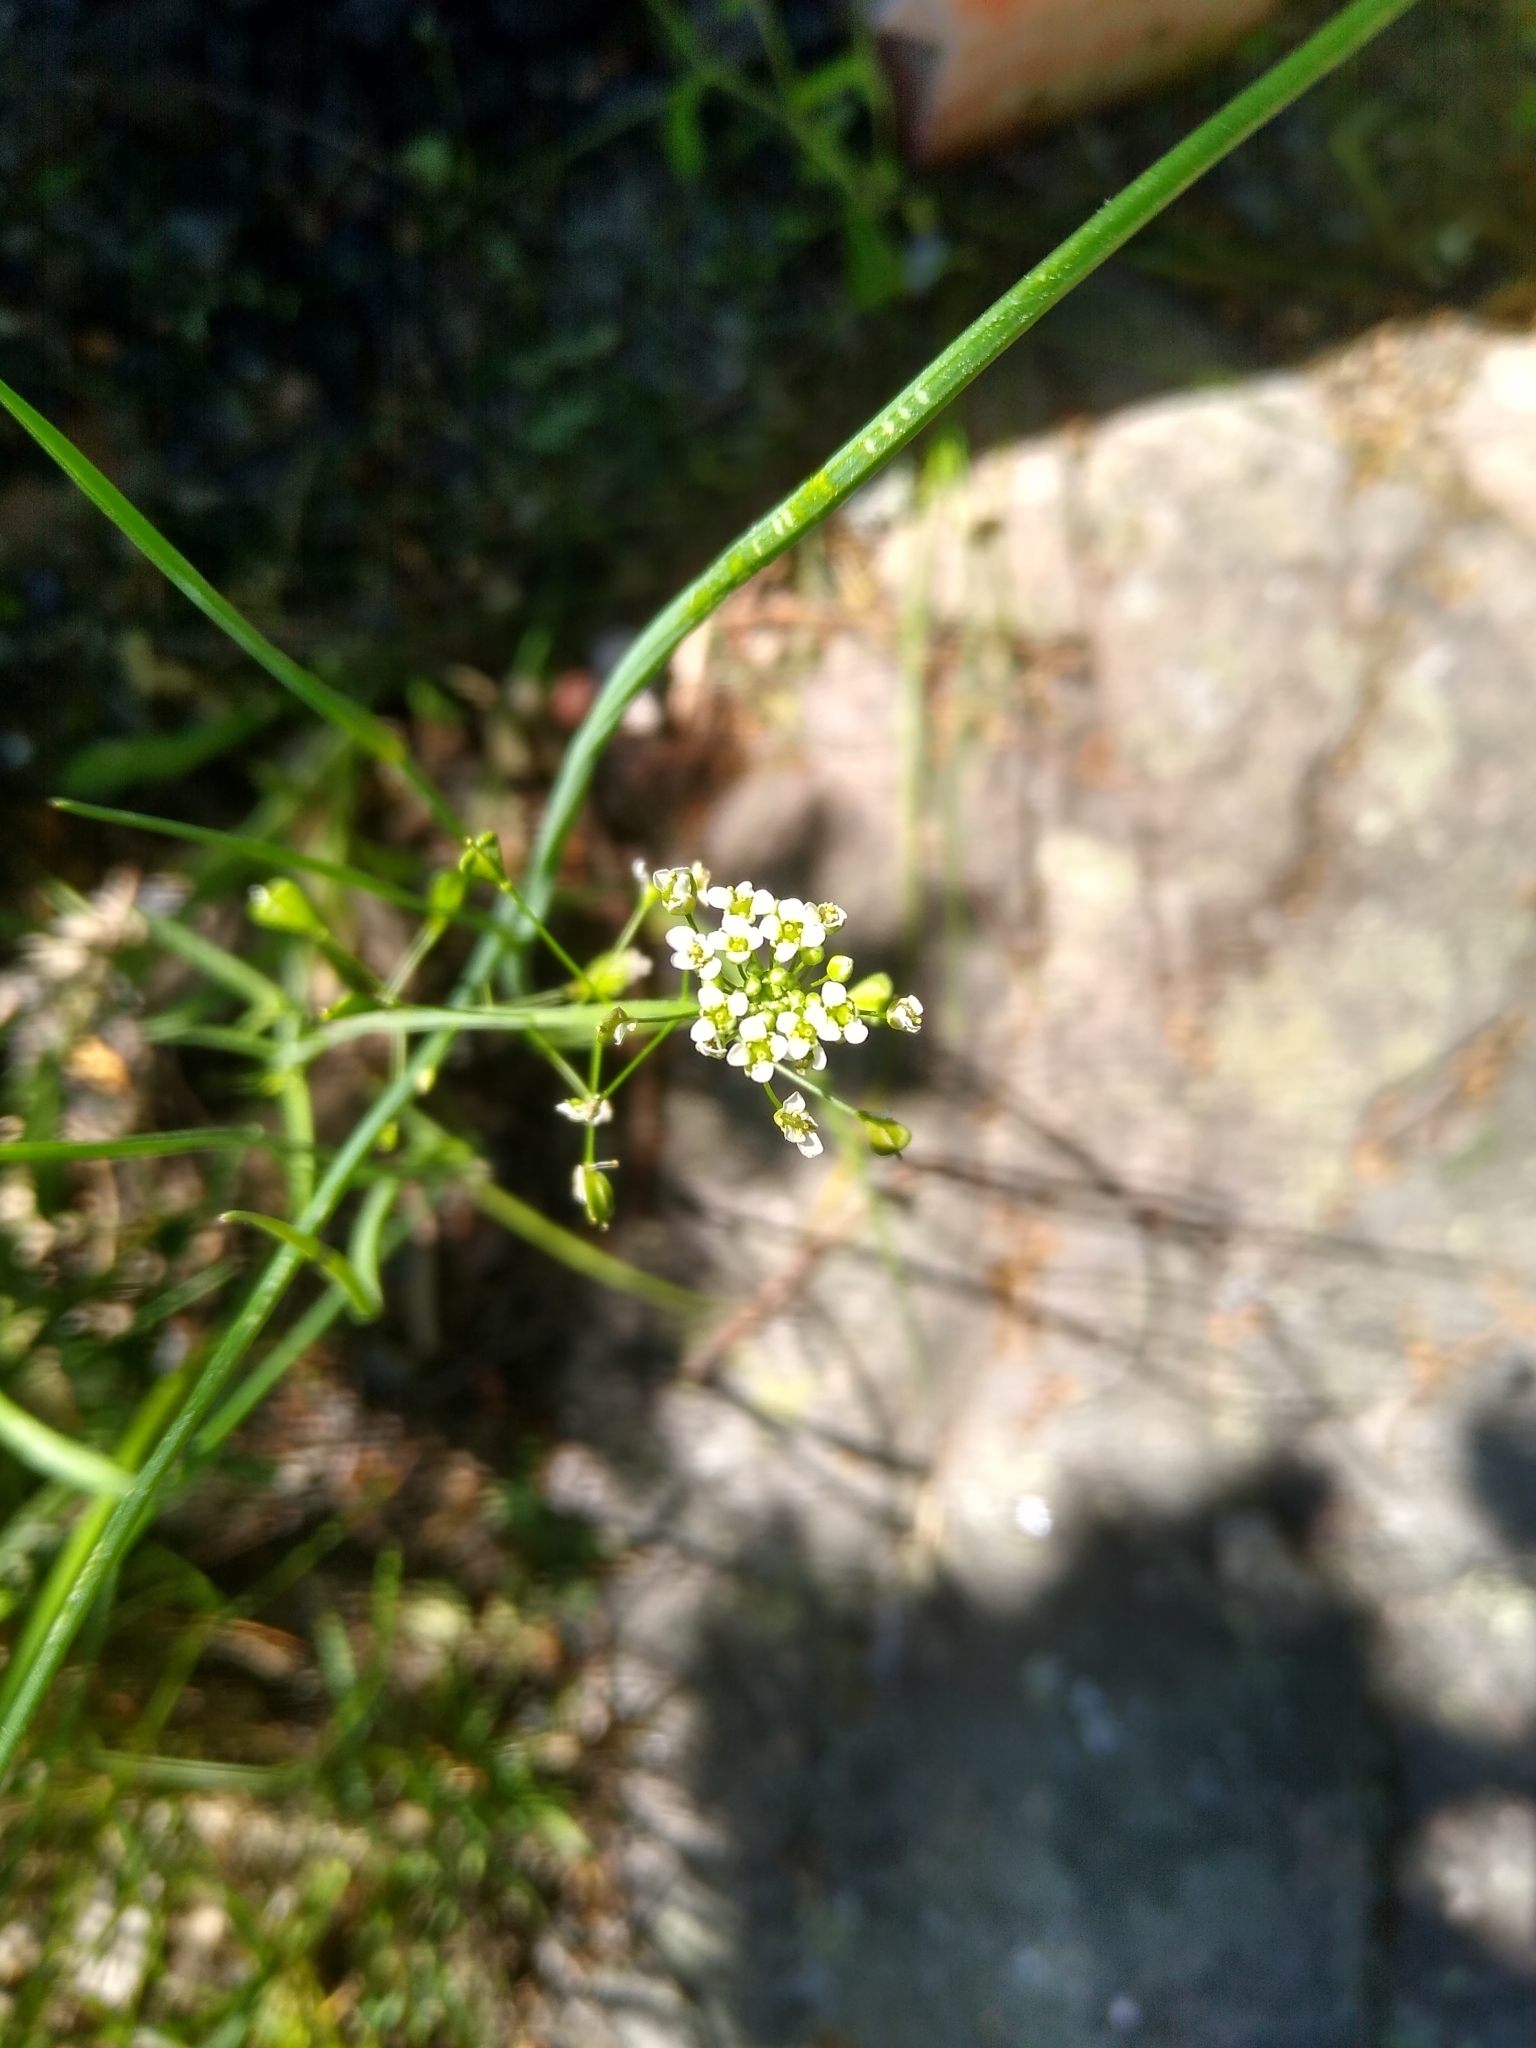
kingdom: Plantae
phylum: Tracheophyta
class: Magnoliopsida
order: Brassicales
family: Brassicaceae
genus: Capsella
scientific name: Capsella bursa-pastoris
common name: Shepherd's purse
